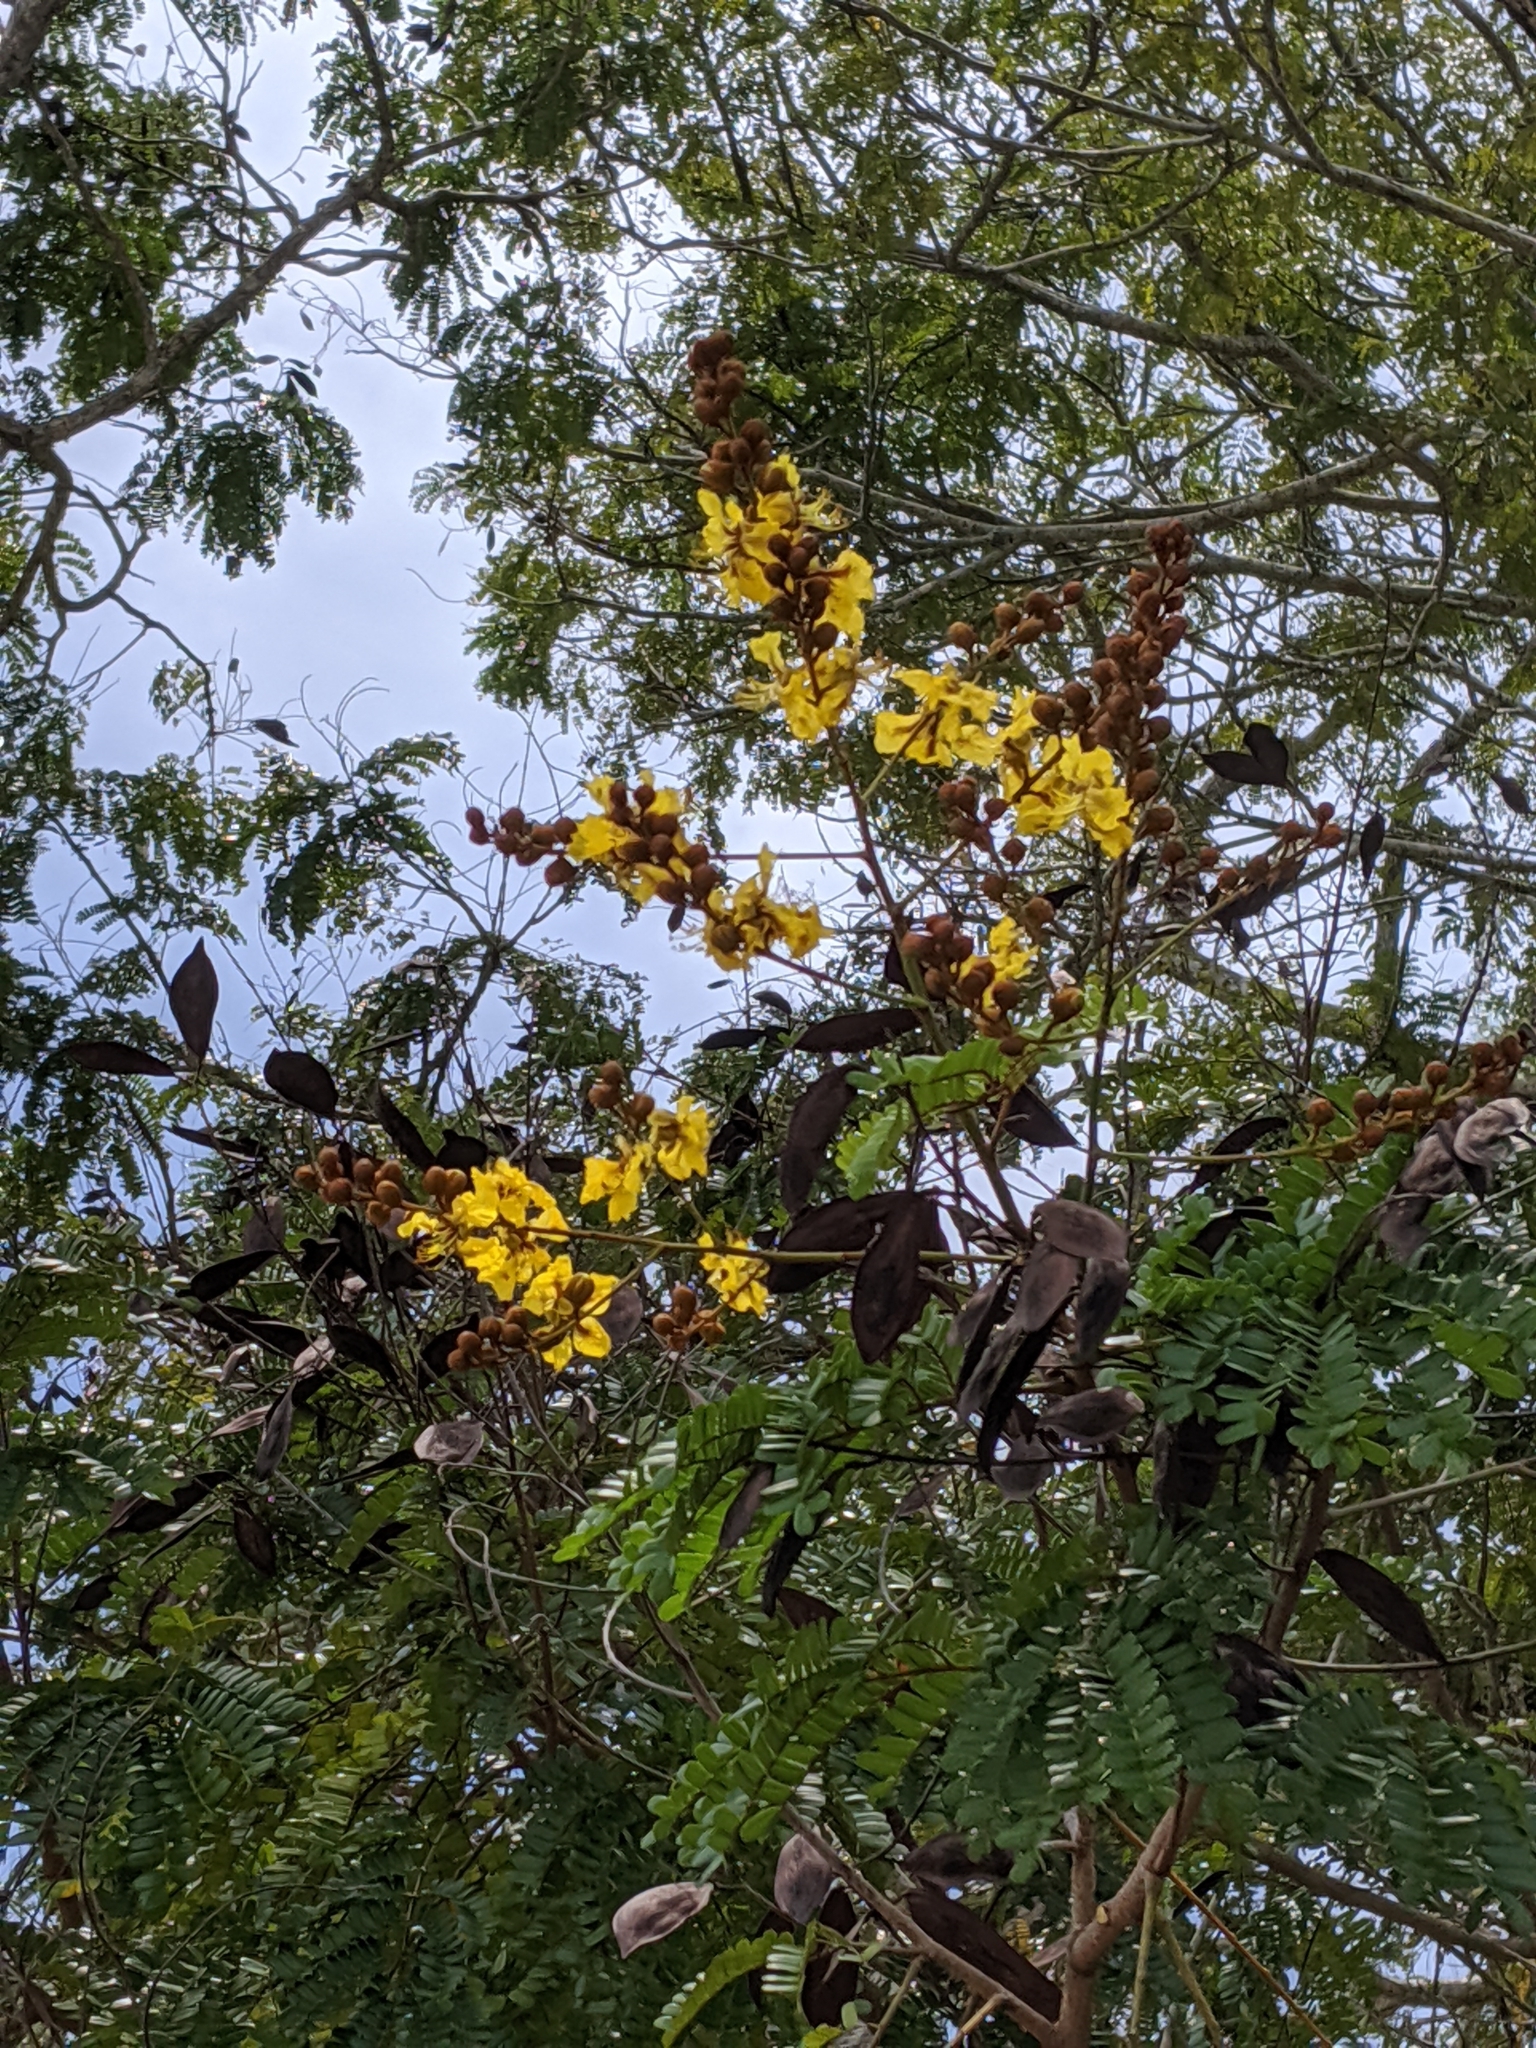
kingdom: Plantae
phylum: Tracheophyta
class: Magnoliopsida
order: Fabales
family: Fabaceae
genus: Peltophorum
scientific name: Peltophorum pterocarpum
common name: Yellow flame
